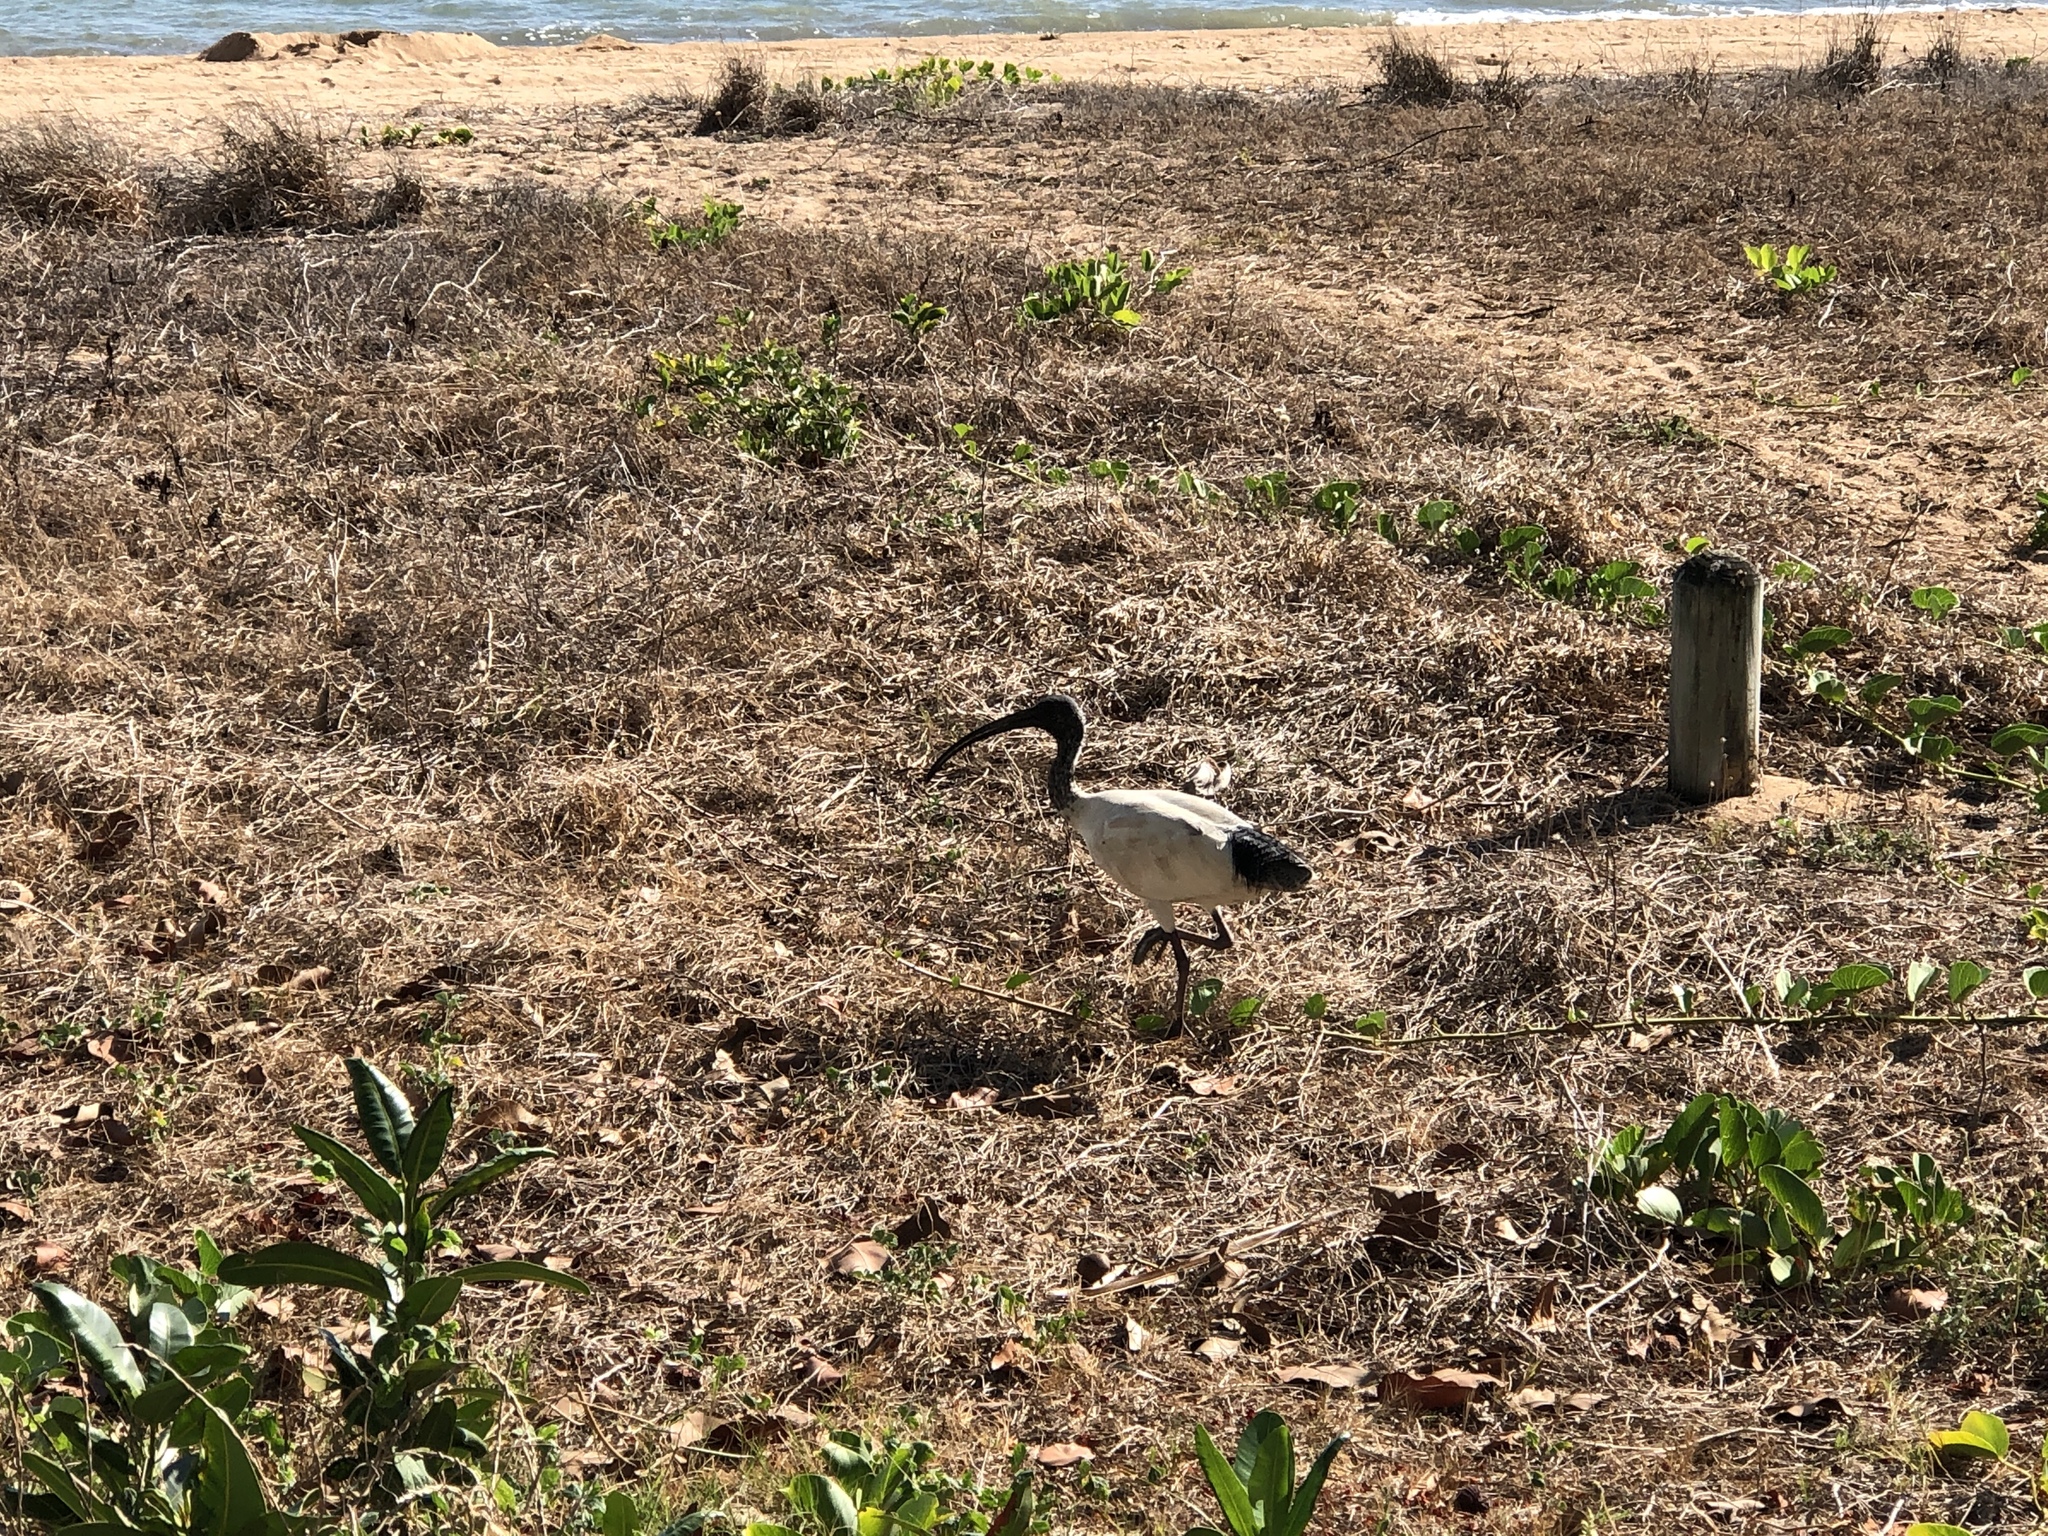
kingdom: Animalia
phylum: Chordata
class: Aves
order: Pelecaniformes
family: Threskiornithidae
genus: Threskiornis
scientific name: Threskiornis molucca
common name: Australian white ibis
